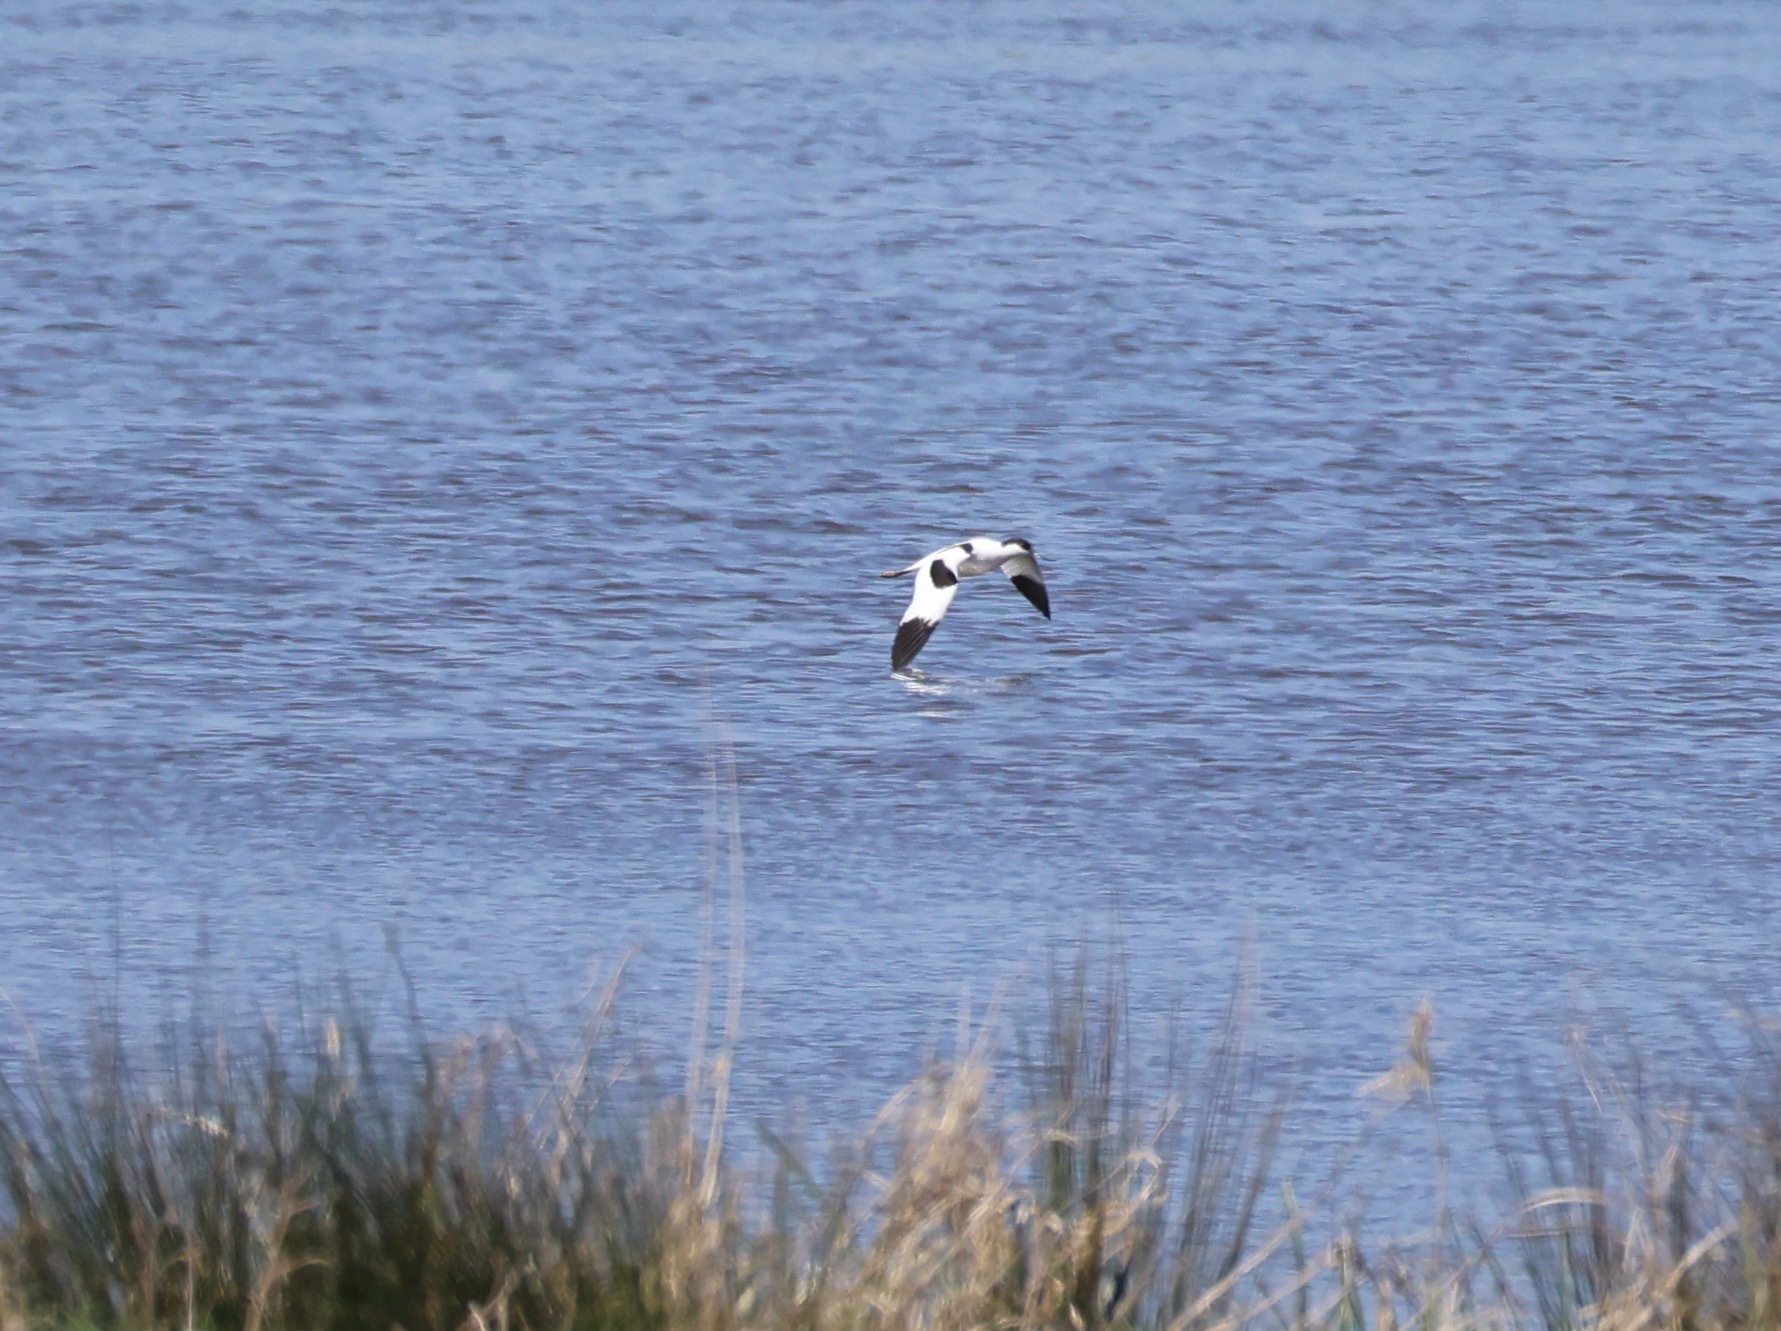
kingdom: Animalia
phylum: Chordata
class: Aves
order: Charadriiformes
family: Recurvirostridae
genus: Recurvirostra
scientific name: Recurvirostra avosetta
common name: Pied avocet
